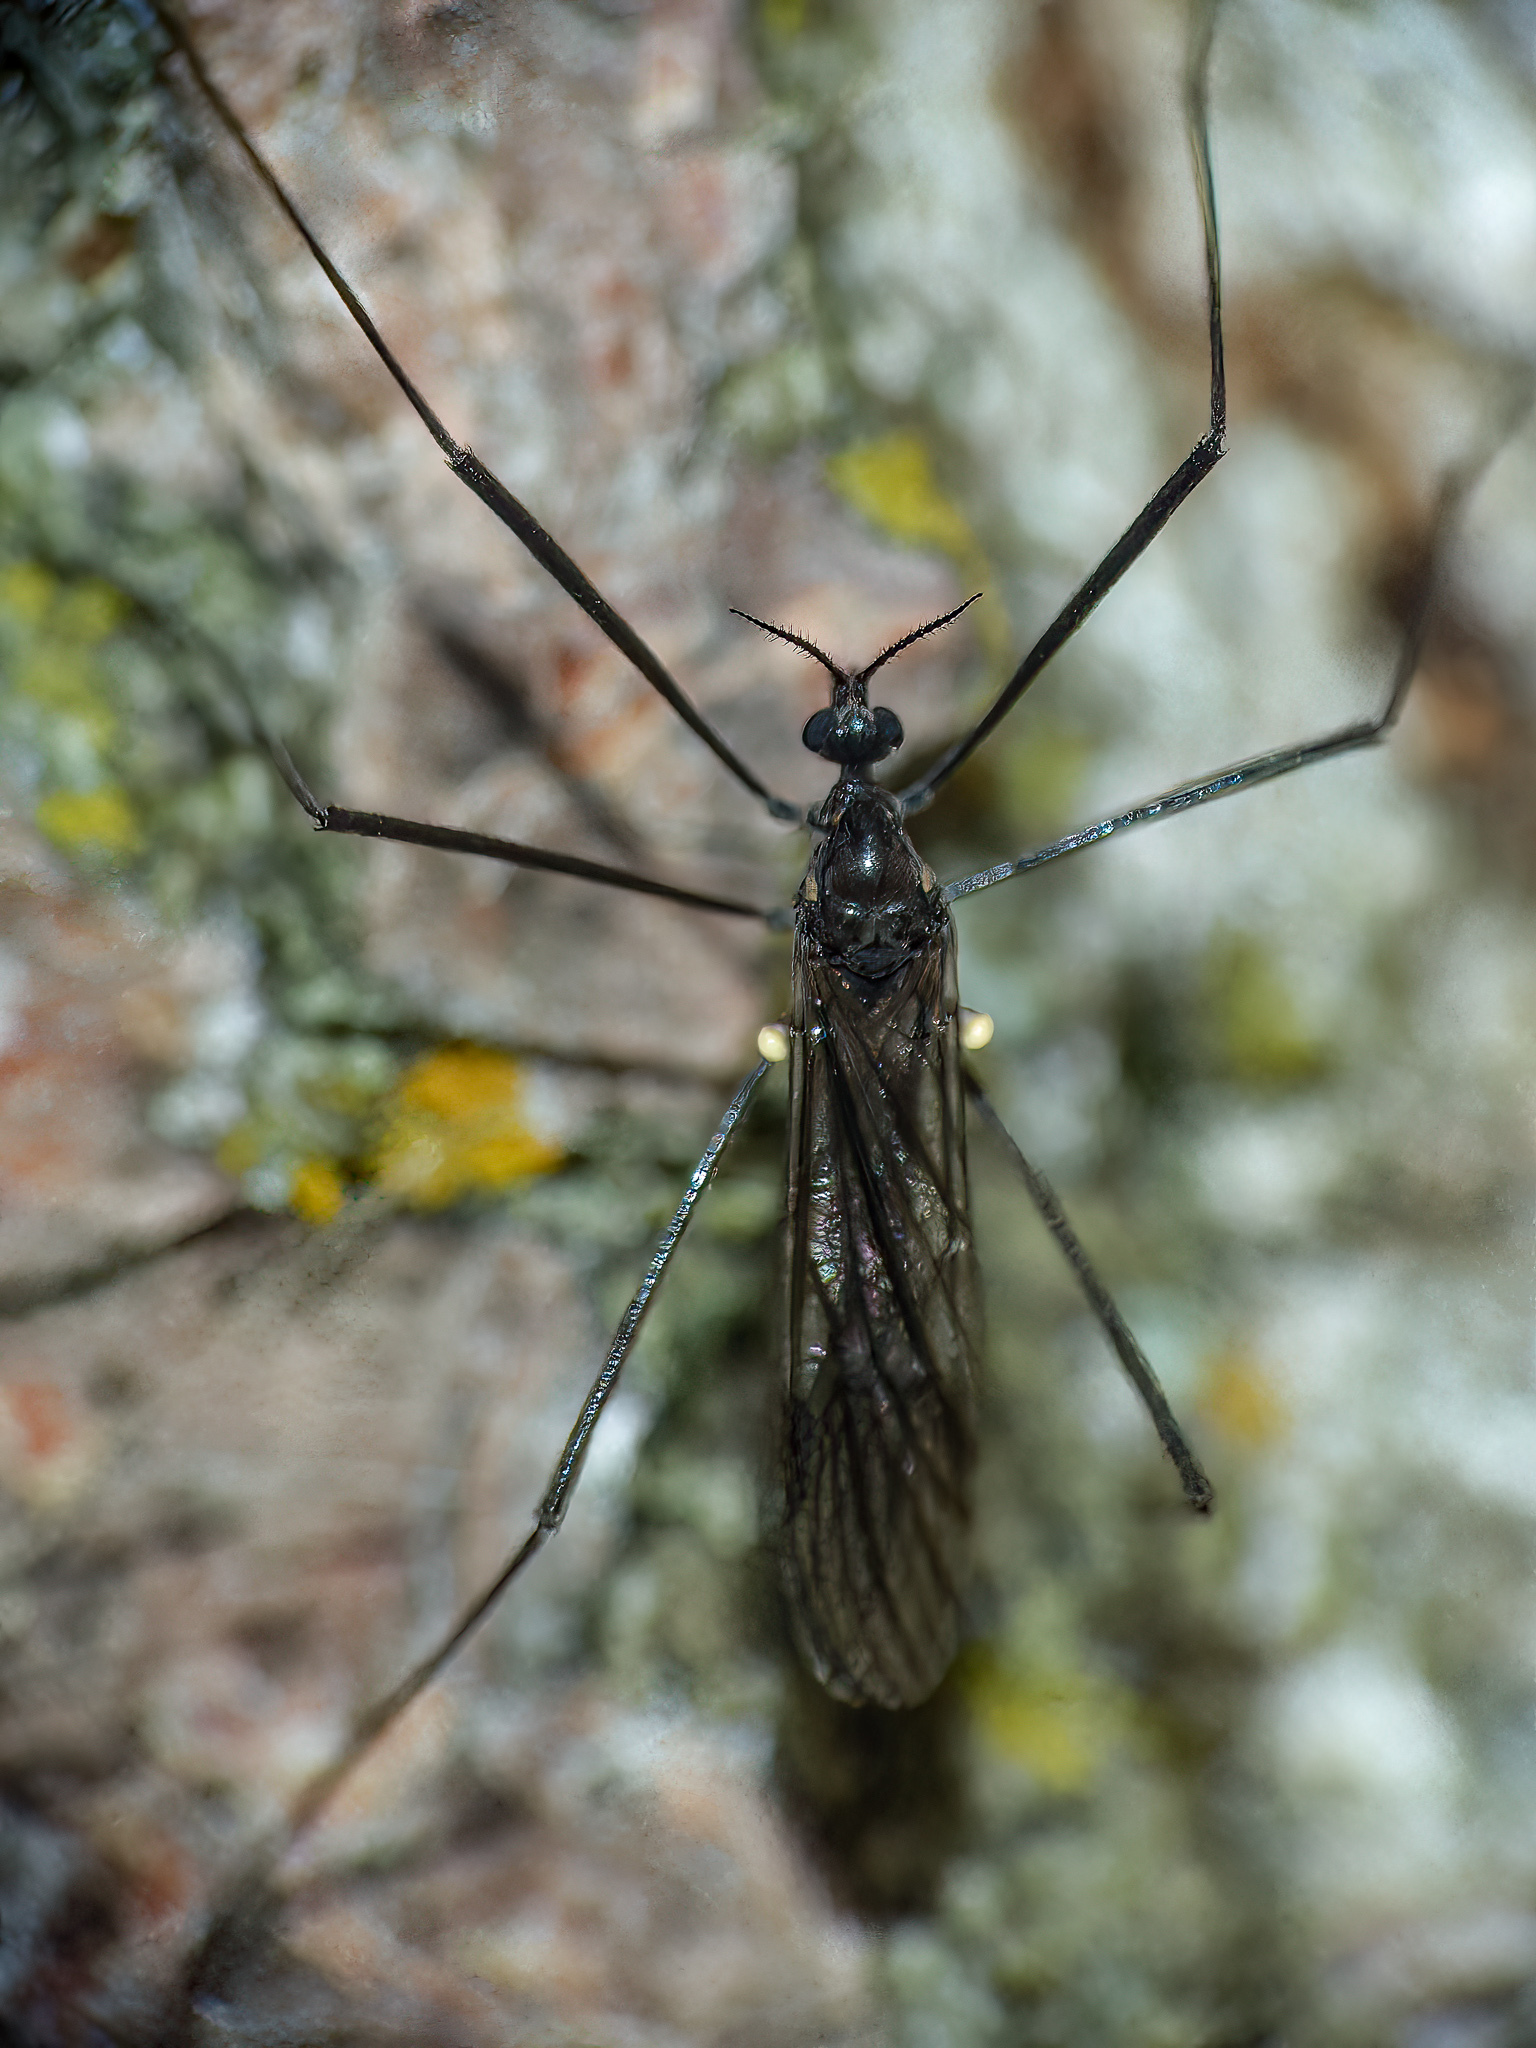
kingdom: Animalia
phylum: Arthropoda
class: Insecta
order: Diptera
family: Limoniidae
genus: Gnophomyia
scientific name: Gnophomyia tristissima
